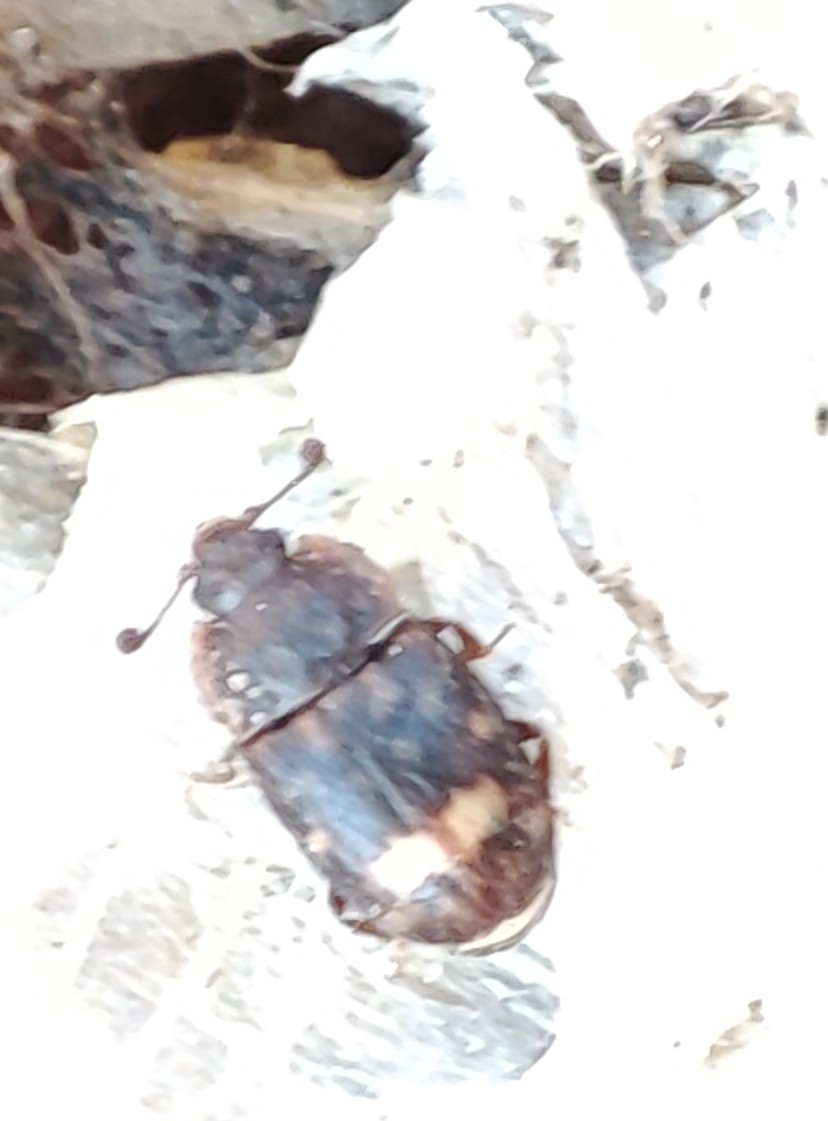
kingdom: Animalia
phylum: Arthropoda
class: Insecta
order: Coleoptera
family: Nitidulidae
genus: Omosita
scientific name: Omosita colon
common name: Sap-feeding beetle
